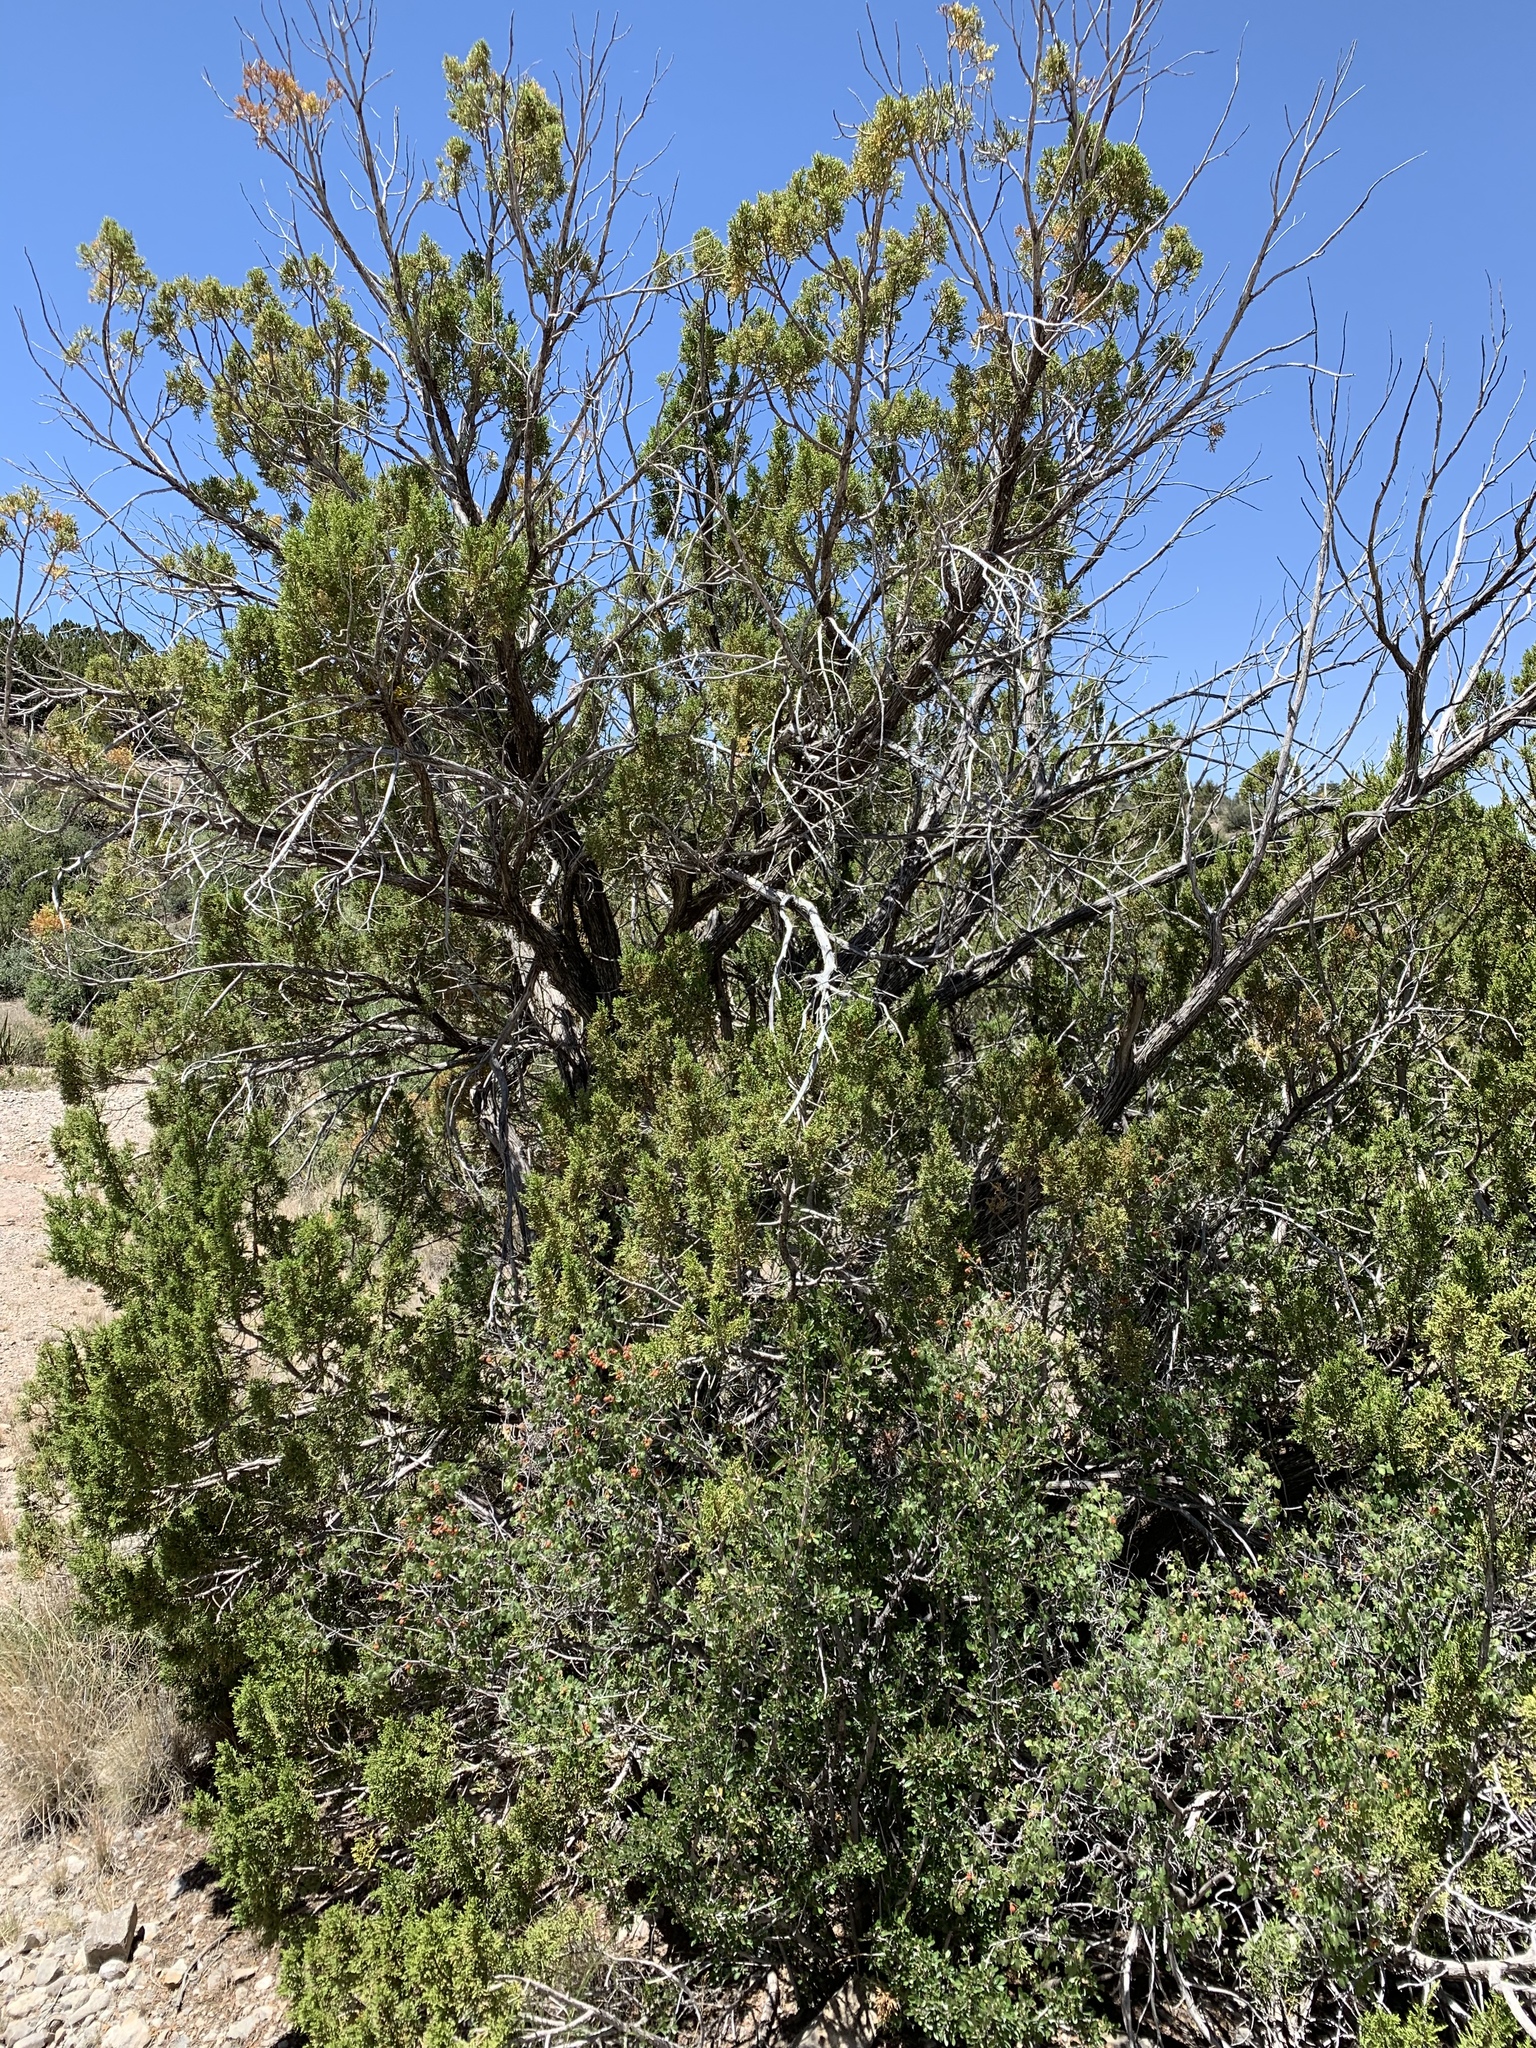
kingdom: Plantae
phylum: Tracheophyta
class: Pinopsida
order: Pinales
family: Cupressaceae
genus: Juniperus
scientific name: Juniperus monosperma
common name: One-seed juniper
